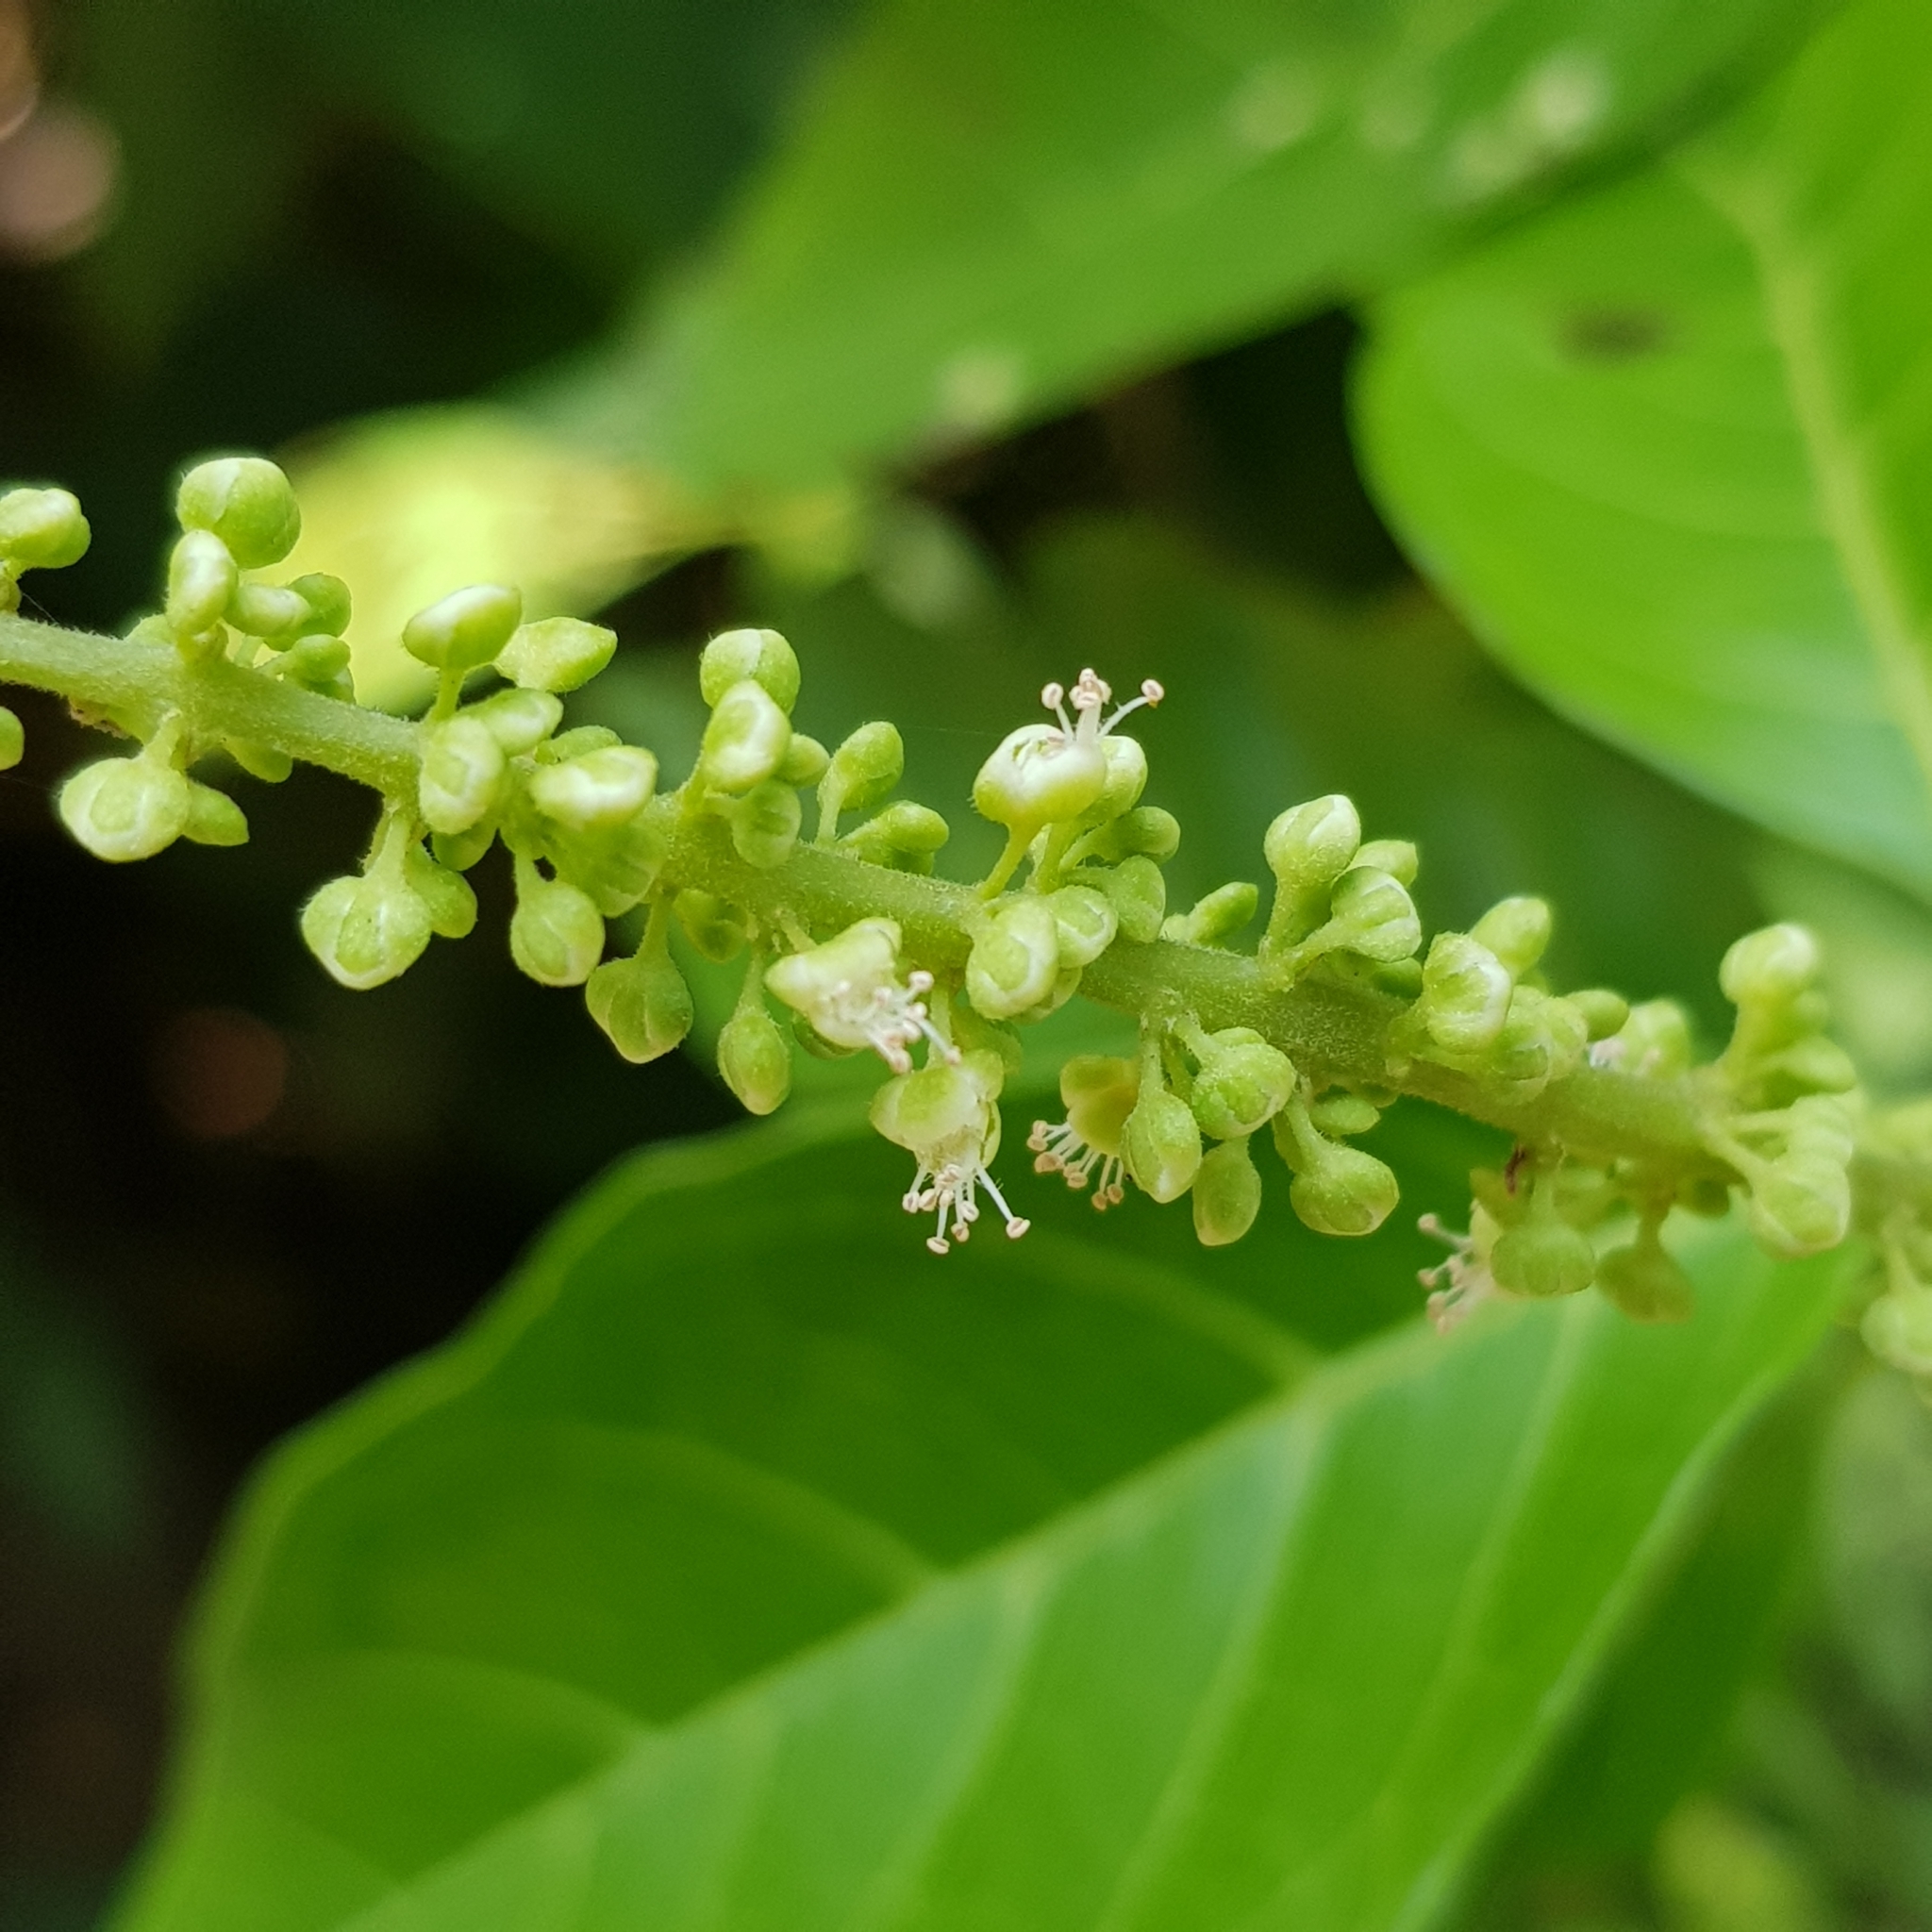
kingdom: Plantae
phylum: Tracheophyta
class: Magnoliopsida
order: Sapindales
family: Sapindaceae
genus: Allophylus
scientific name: Allophylus cobbe
